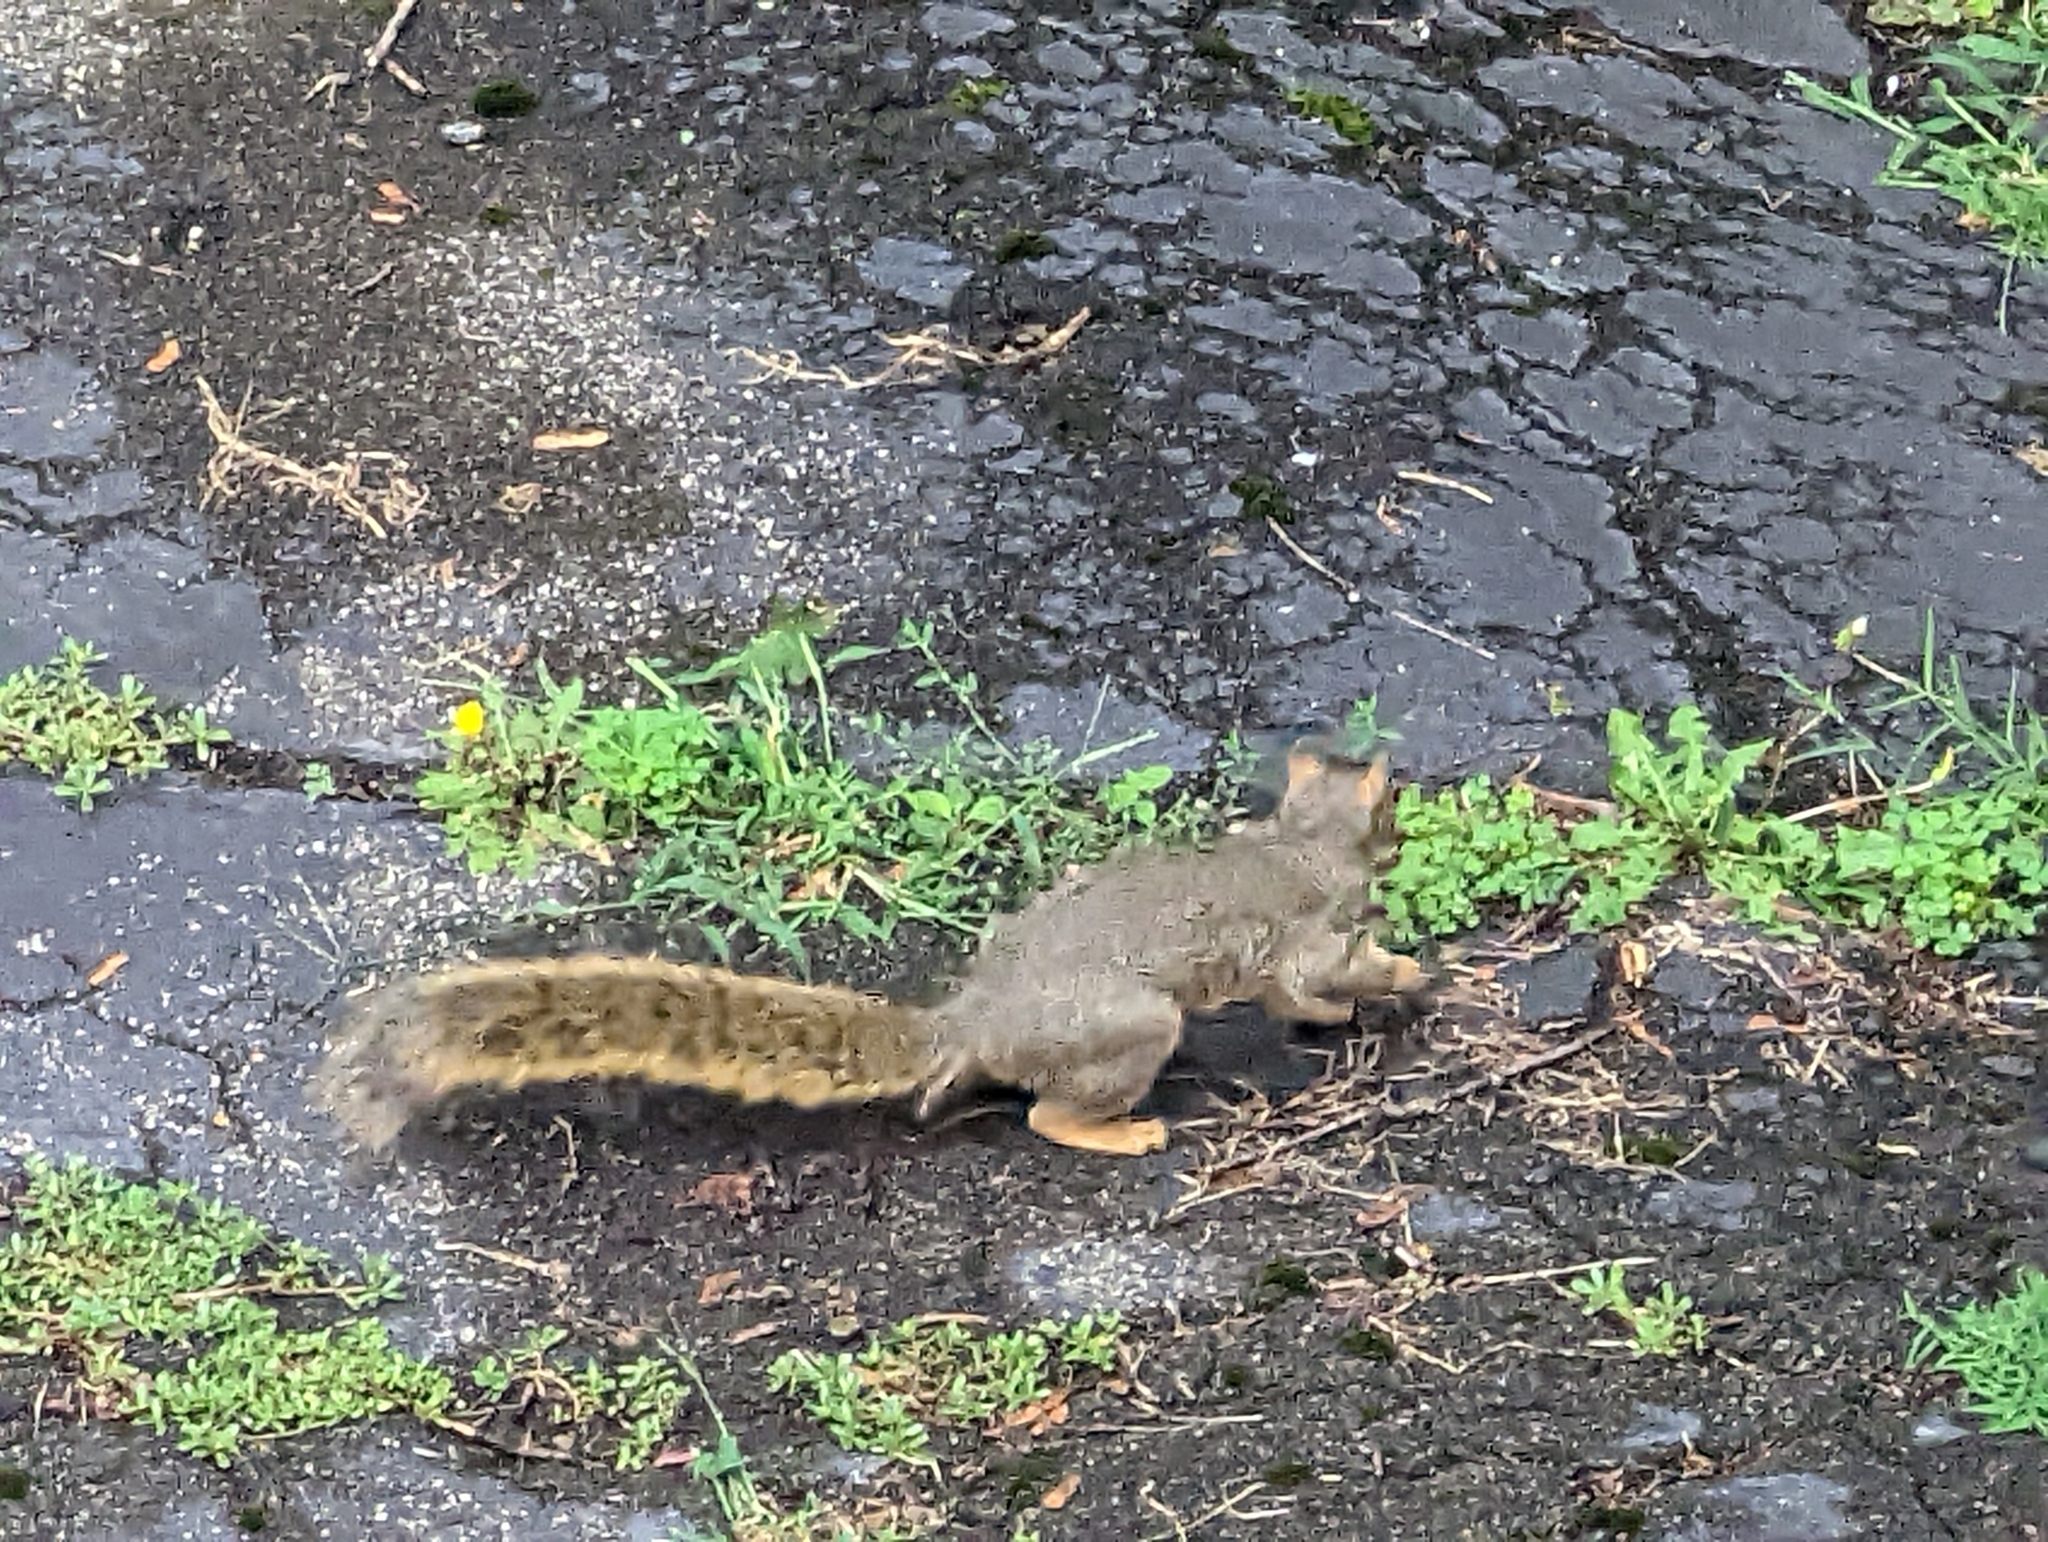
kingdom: Animalia
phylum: Chordata
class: Mammalia
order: Rodentia
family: Sciuridae
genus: Sciurus
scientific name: Sciurus niger
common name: Fox squirrel
